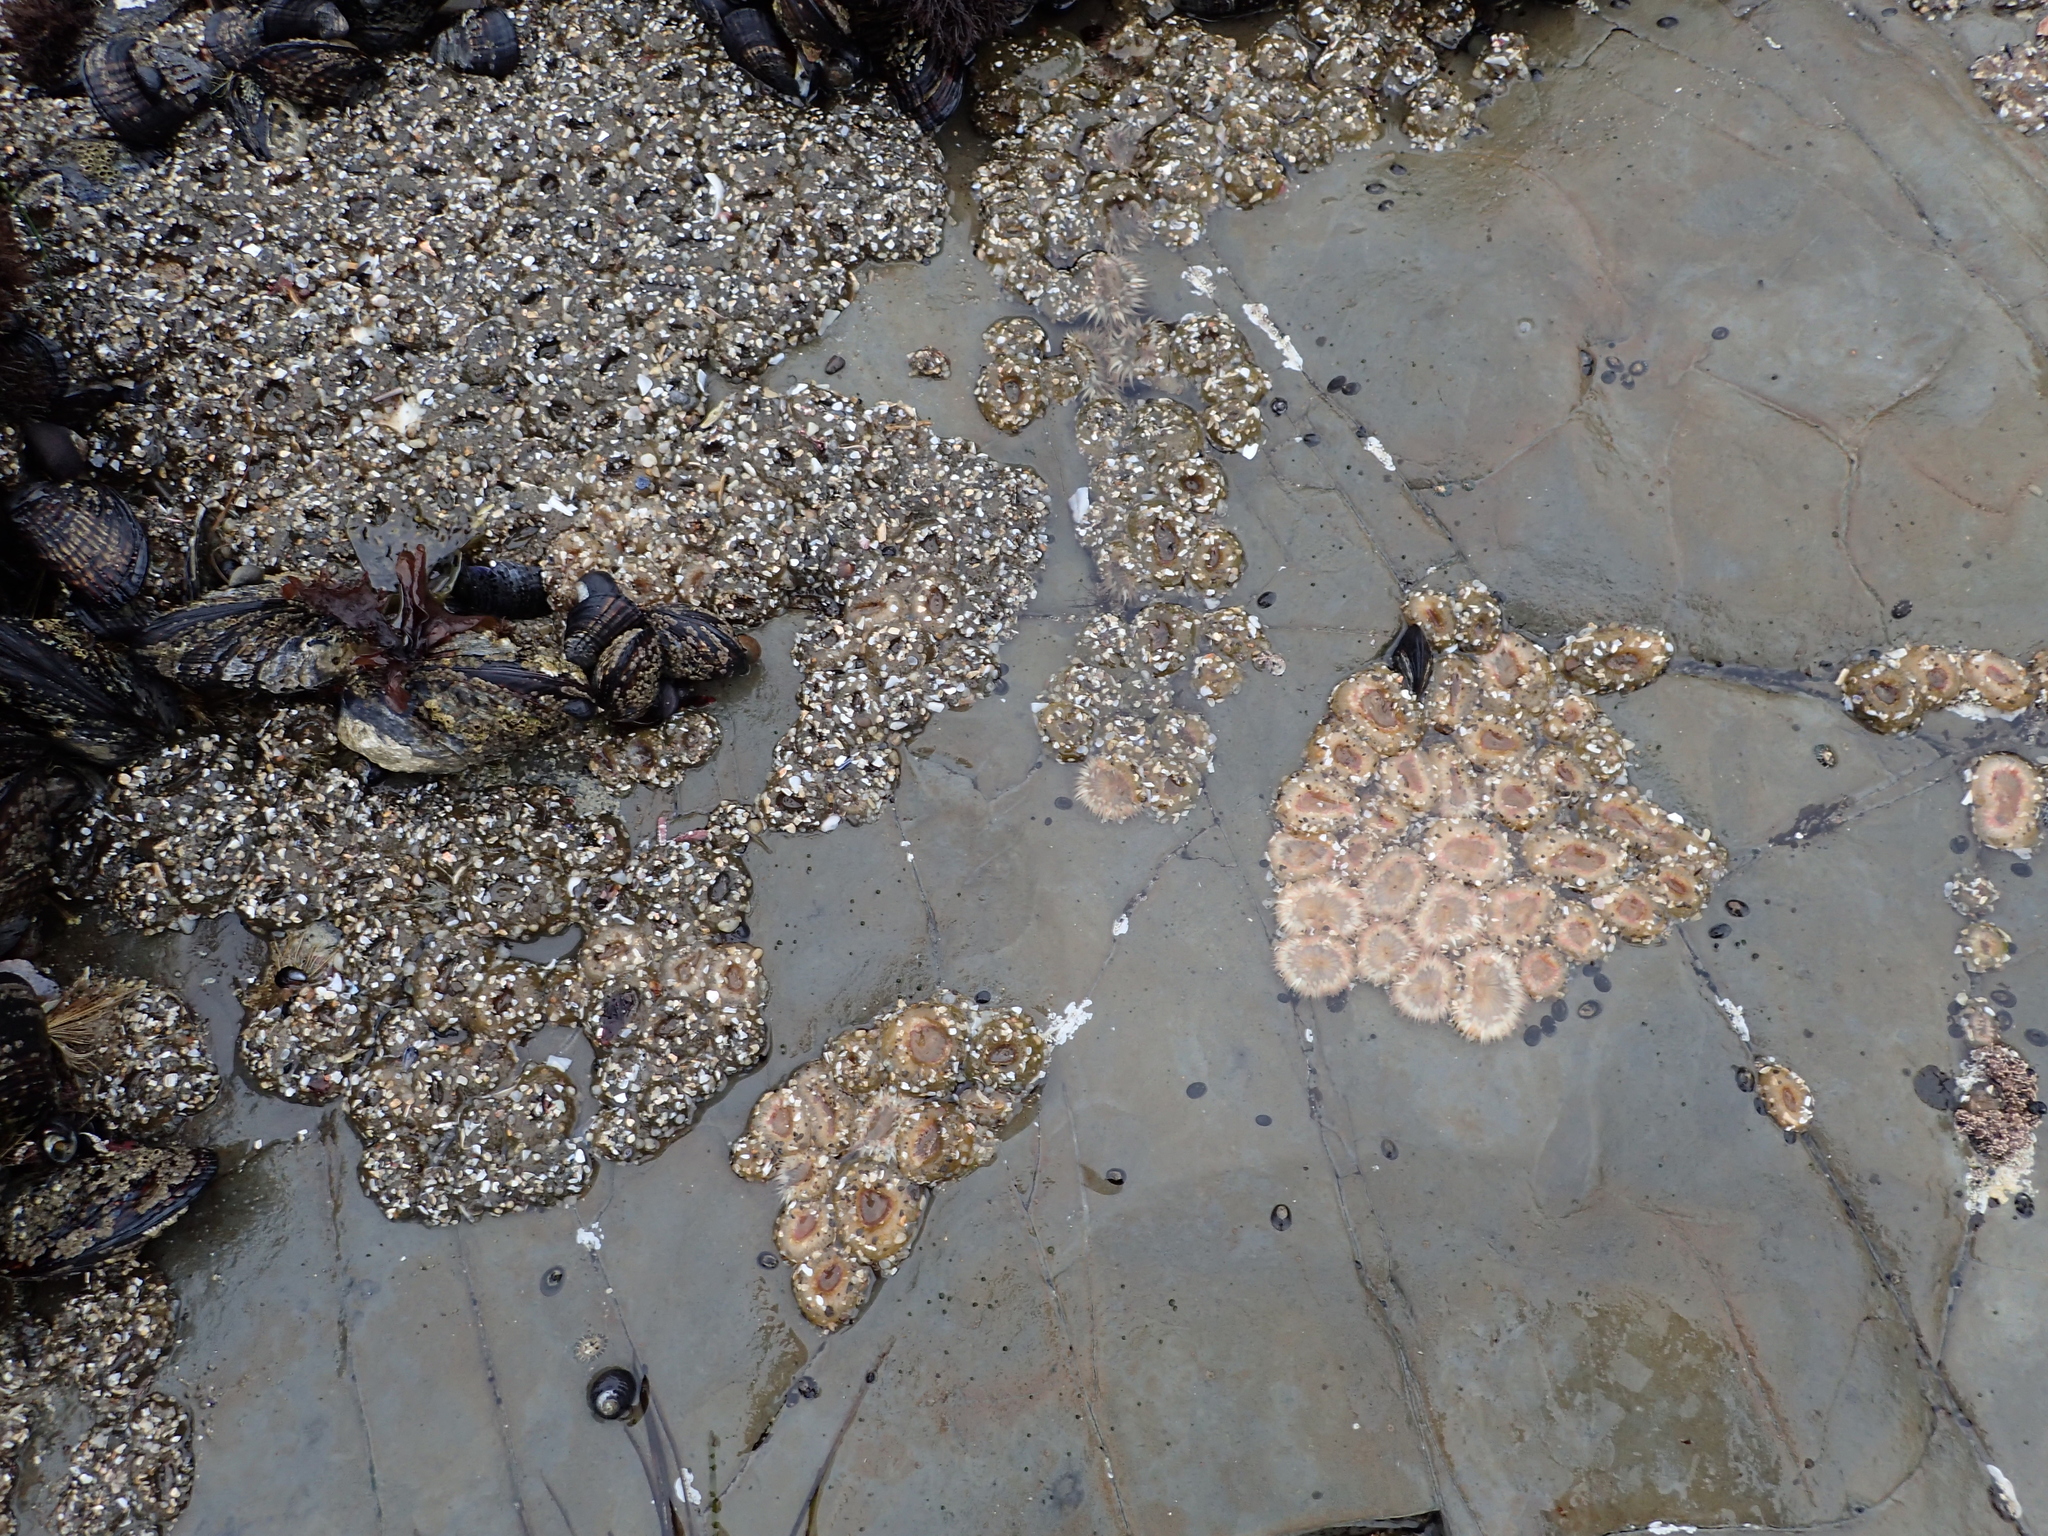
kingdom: Animalia
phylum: Cnidaria
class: Anthozoa
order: Actiniaria
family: Actiniidae
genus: Anthopleura
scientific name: Anthopleura elegantissima
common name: Clonal anemone
